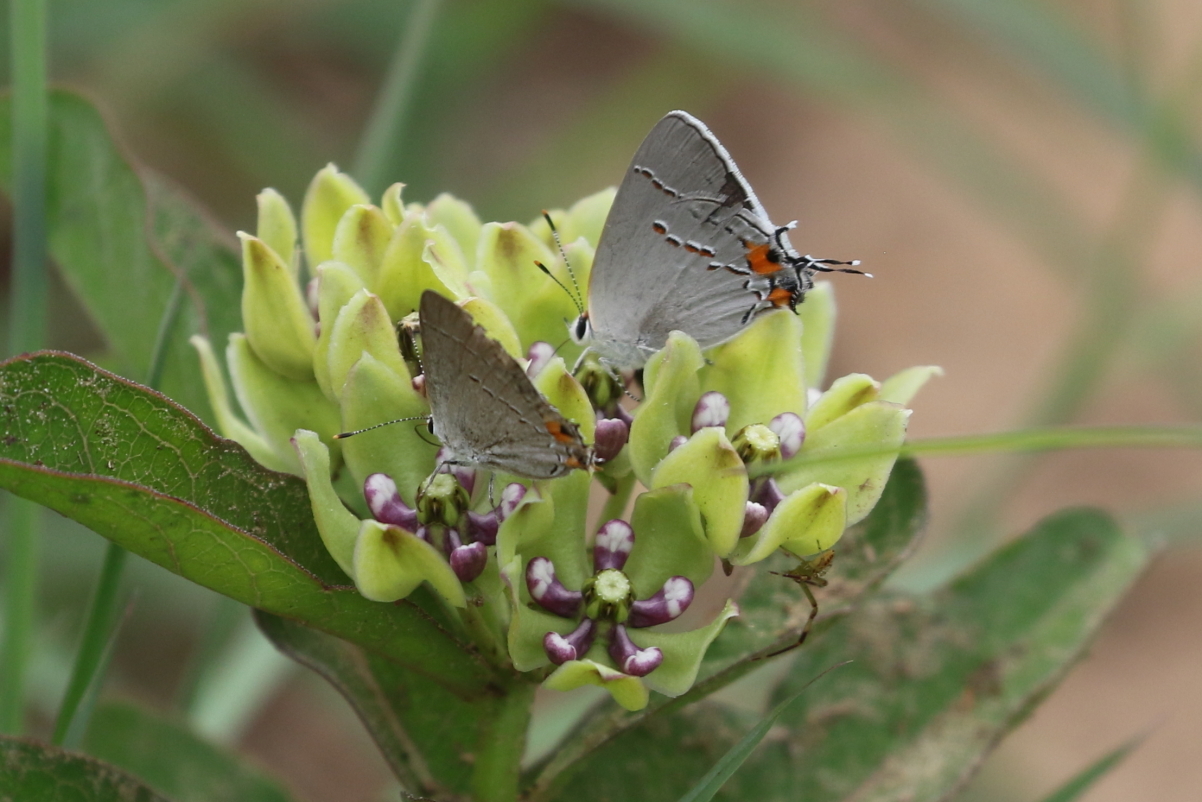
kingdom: Animalia
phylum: Arthropoda
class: Insecta
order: Lepidoptera
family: Lycaenidae
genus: Strymon
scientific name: Strymon melinus
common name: Gray hairstreak
